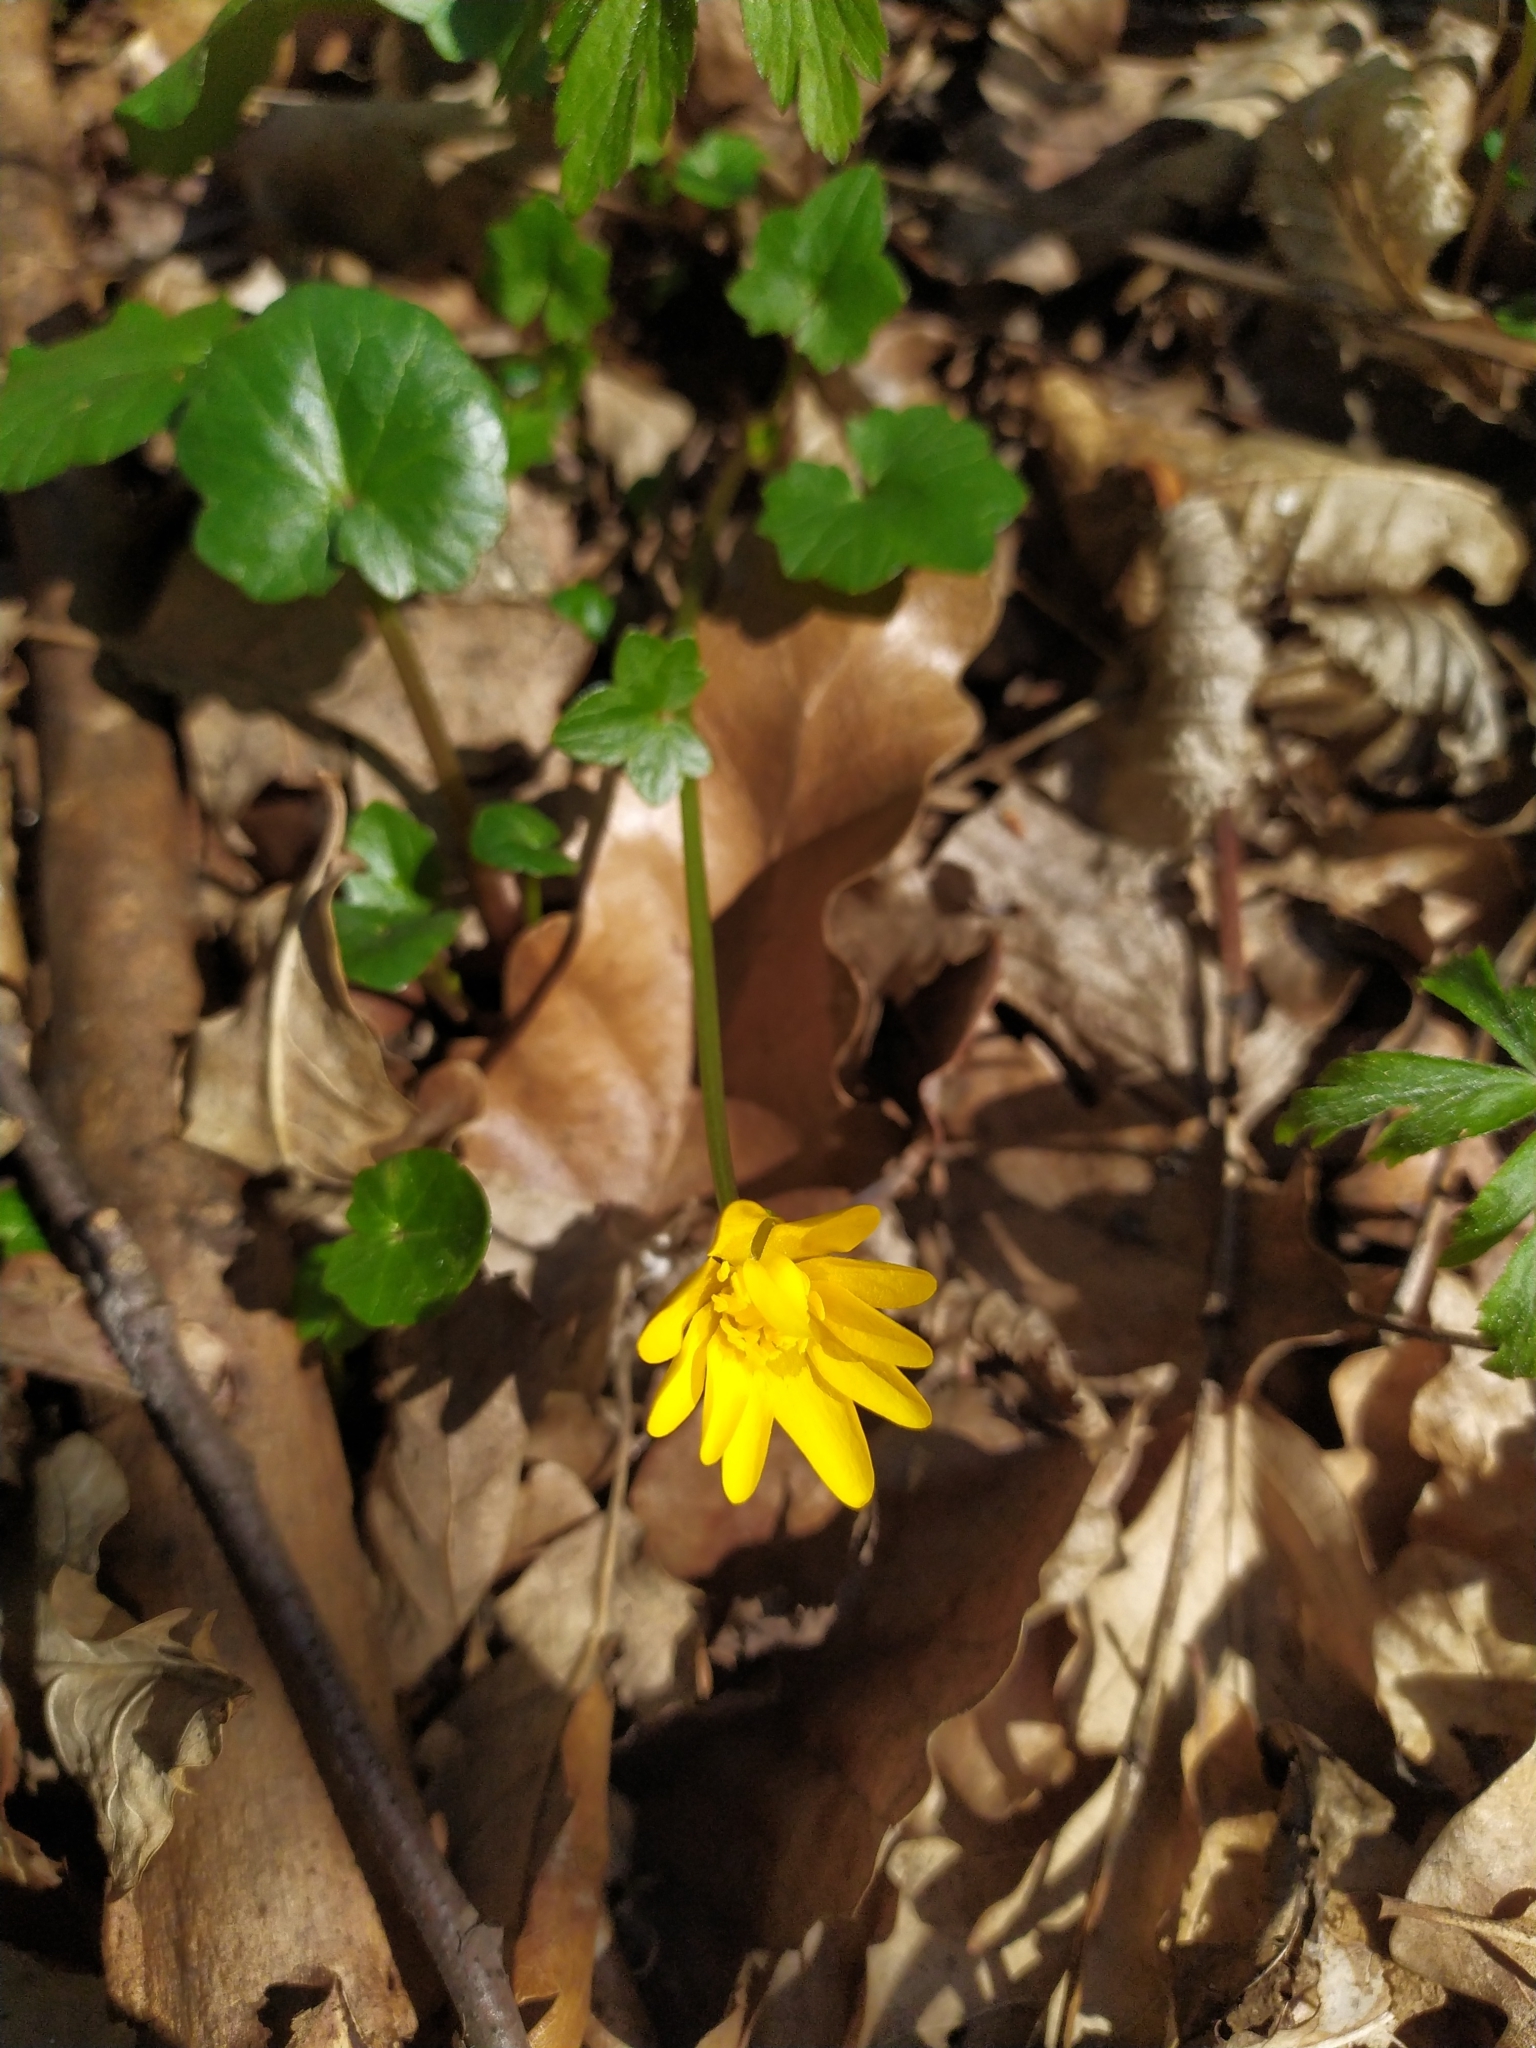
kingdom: Plantae
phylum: Tracheophyta
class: Magnoliopsida
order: Ranunculales
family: Ranunculaceae
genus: Ficaria
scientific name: Ficaria verna
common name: Lesser celandine
